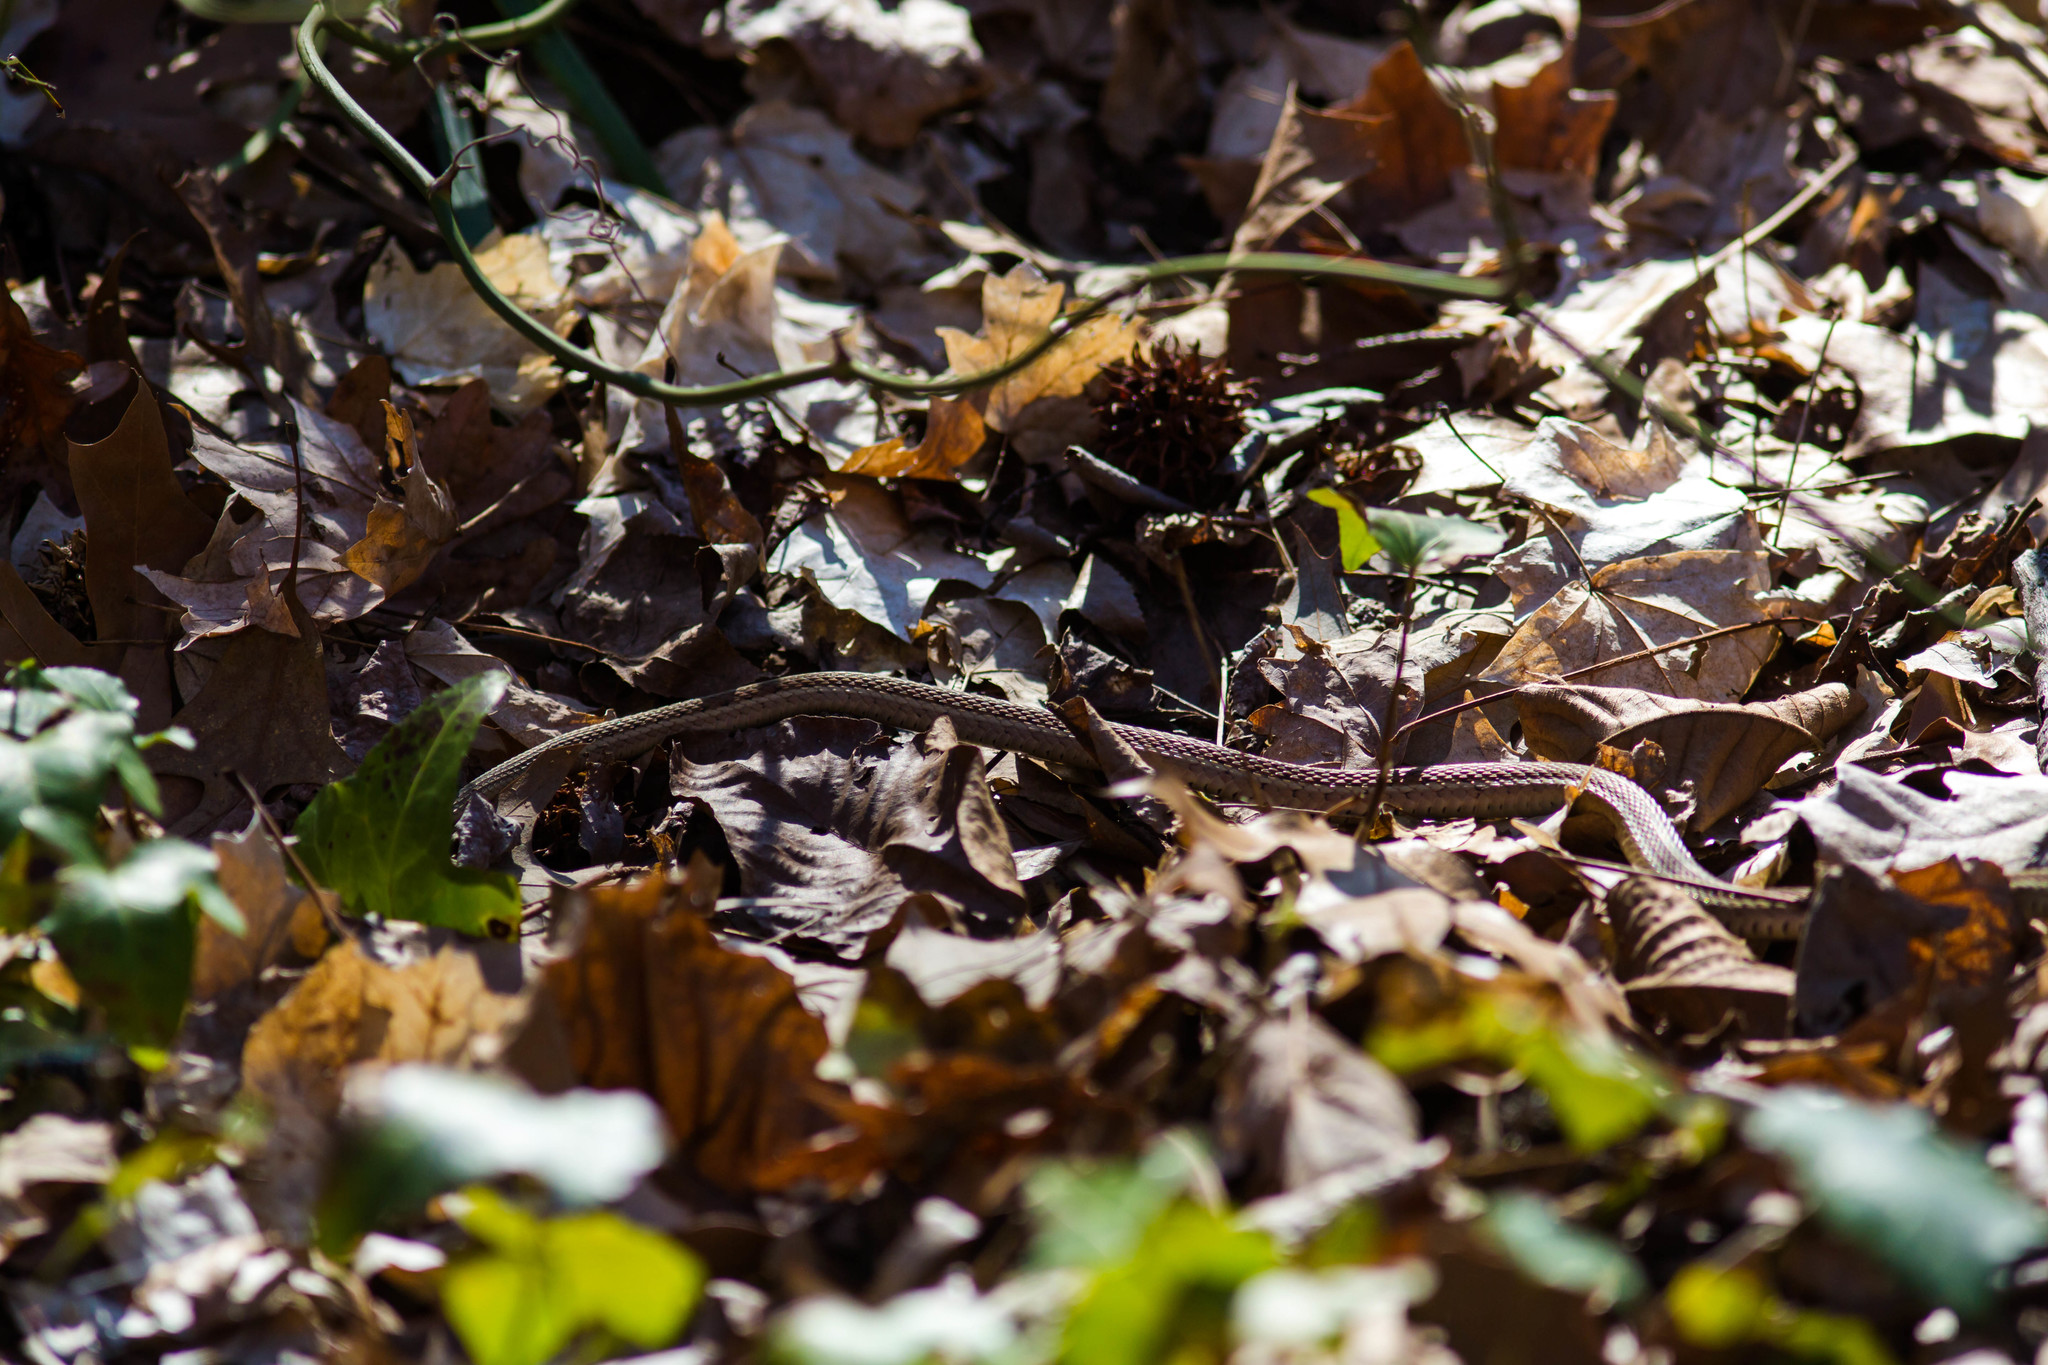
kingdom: Animalia
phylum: Chordata
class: Squamata
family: Colubridae
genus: Thamnophis
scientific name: Thamnophis
